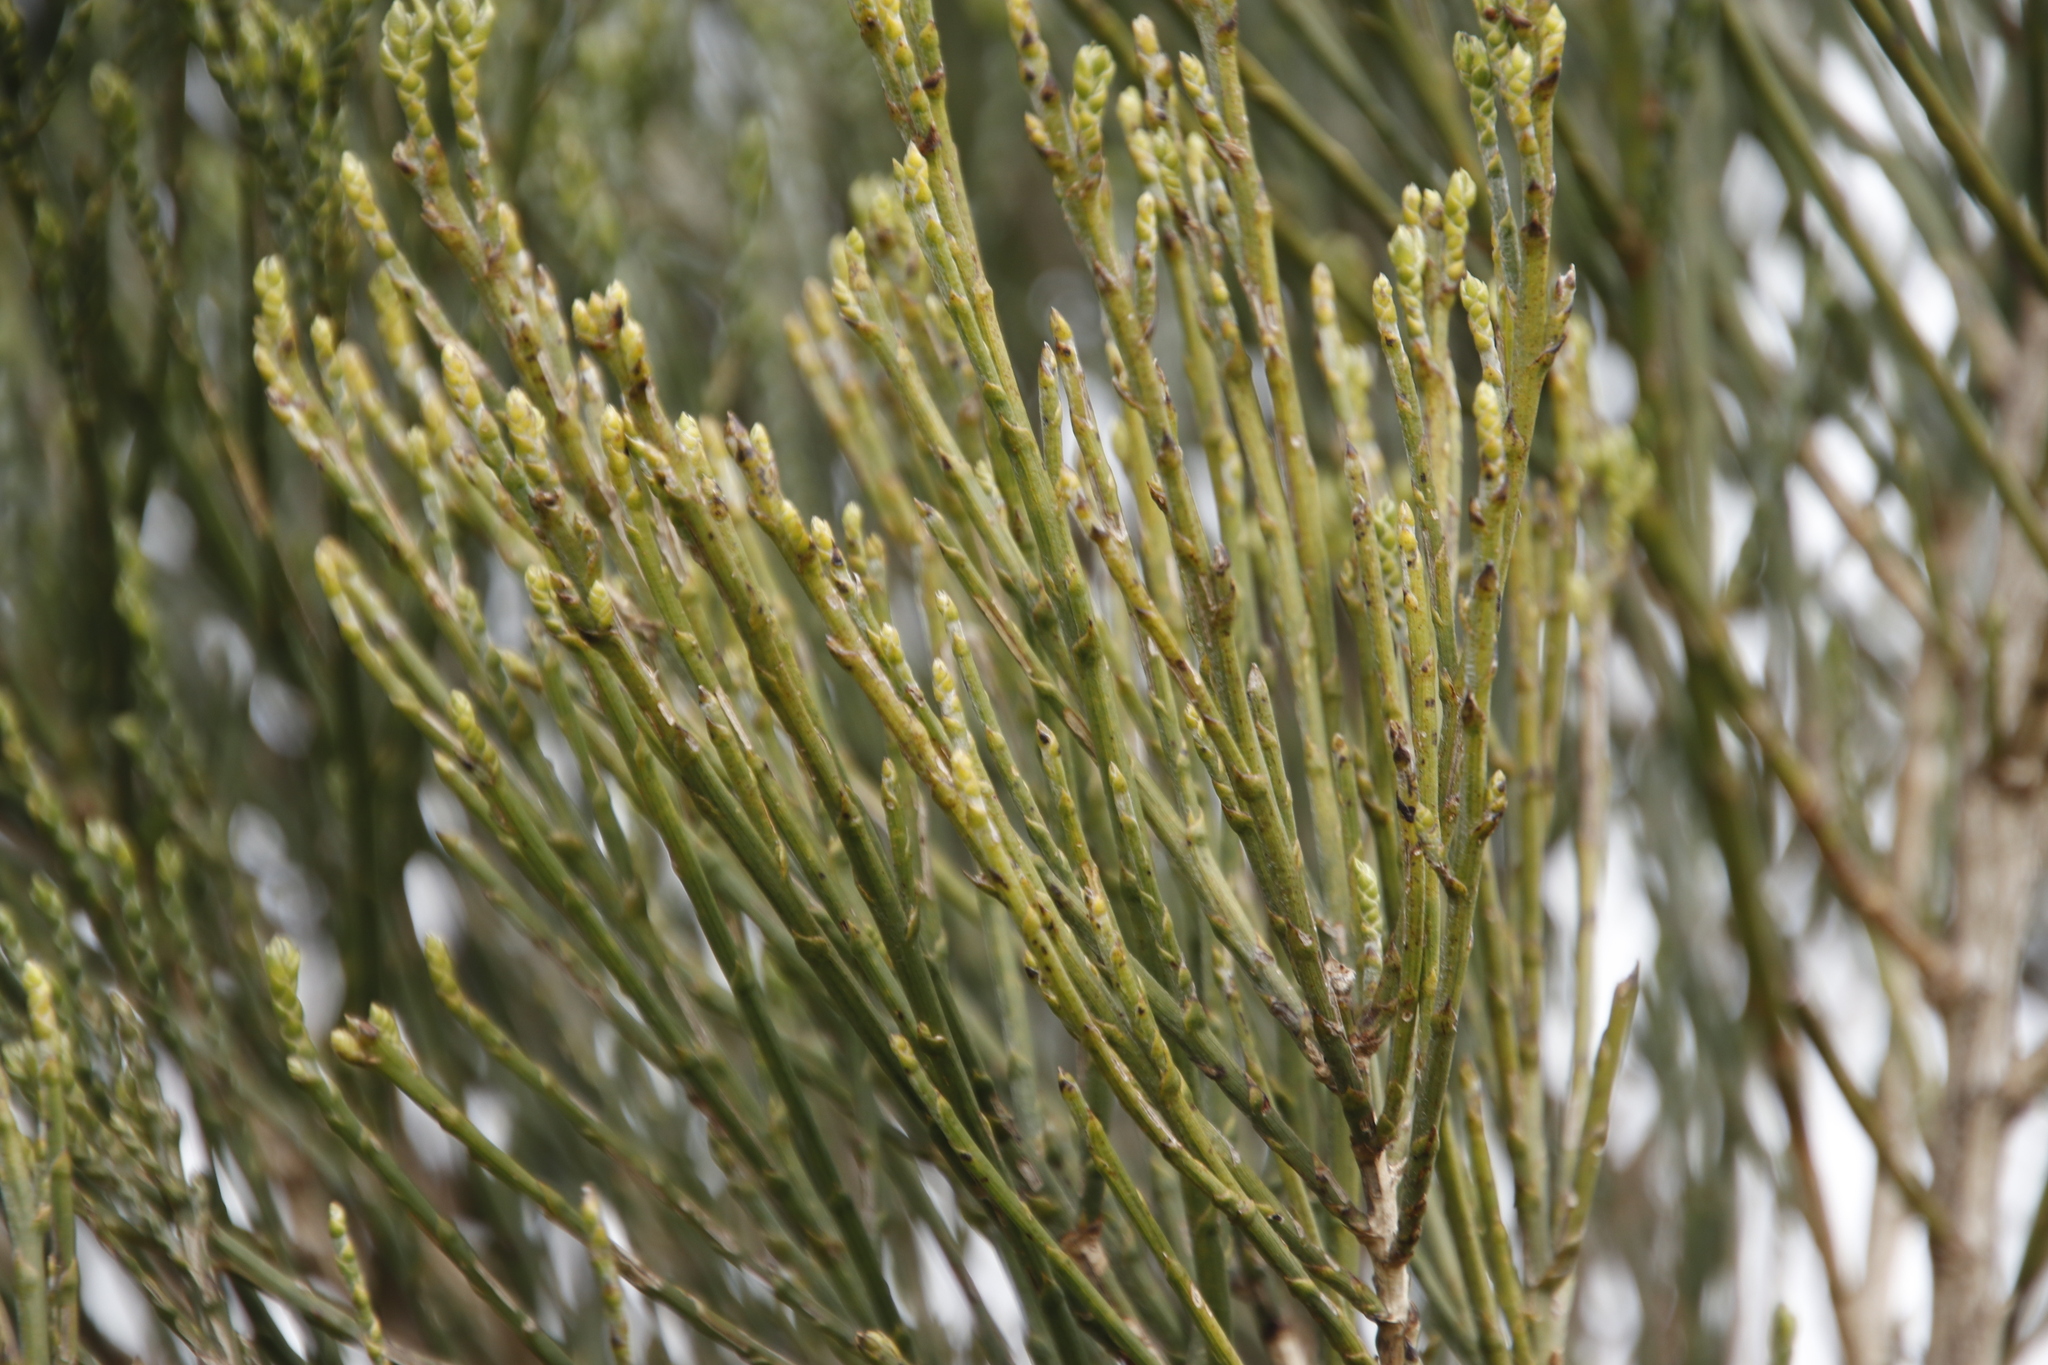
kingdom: Plantae
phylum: Tracheophyta
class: Magnoliopsida
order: Fabales
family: Fabaceae
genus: Psoralea
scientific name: Psoralea congesta
